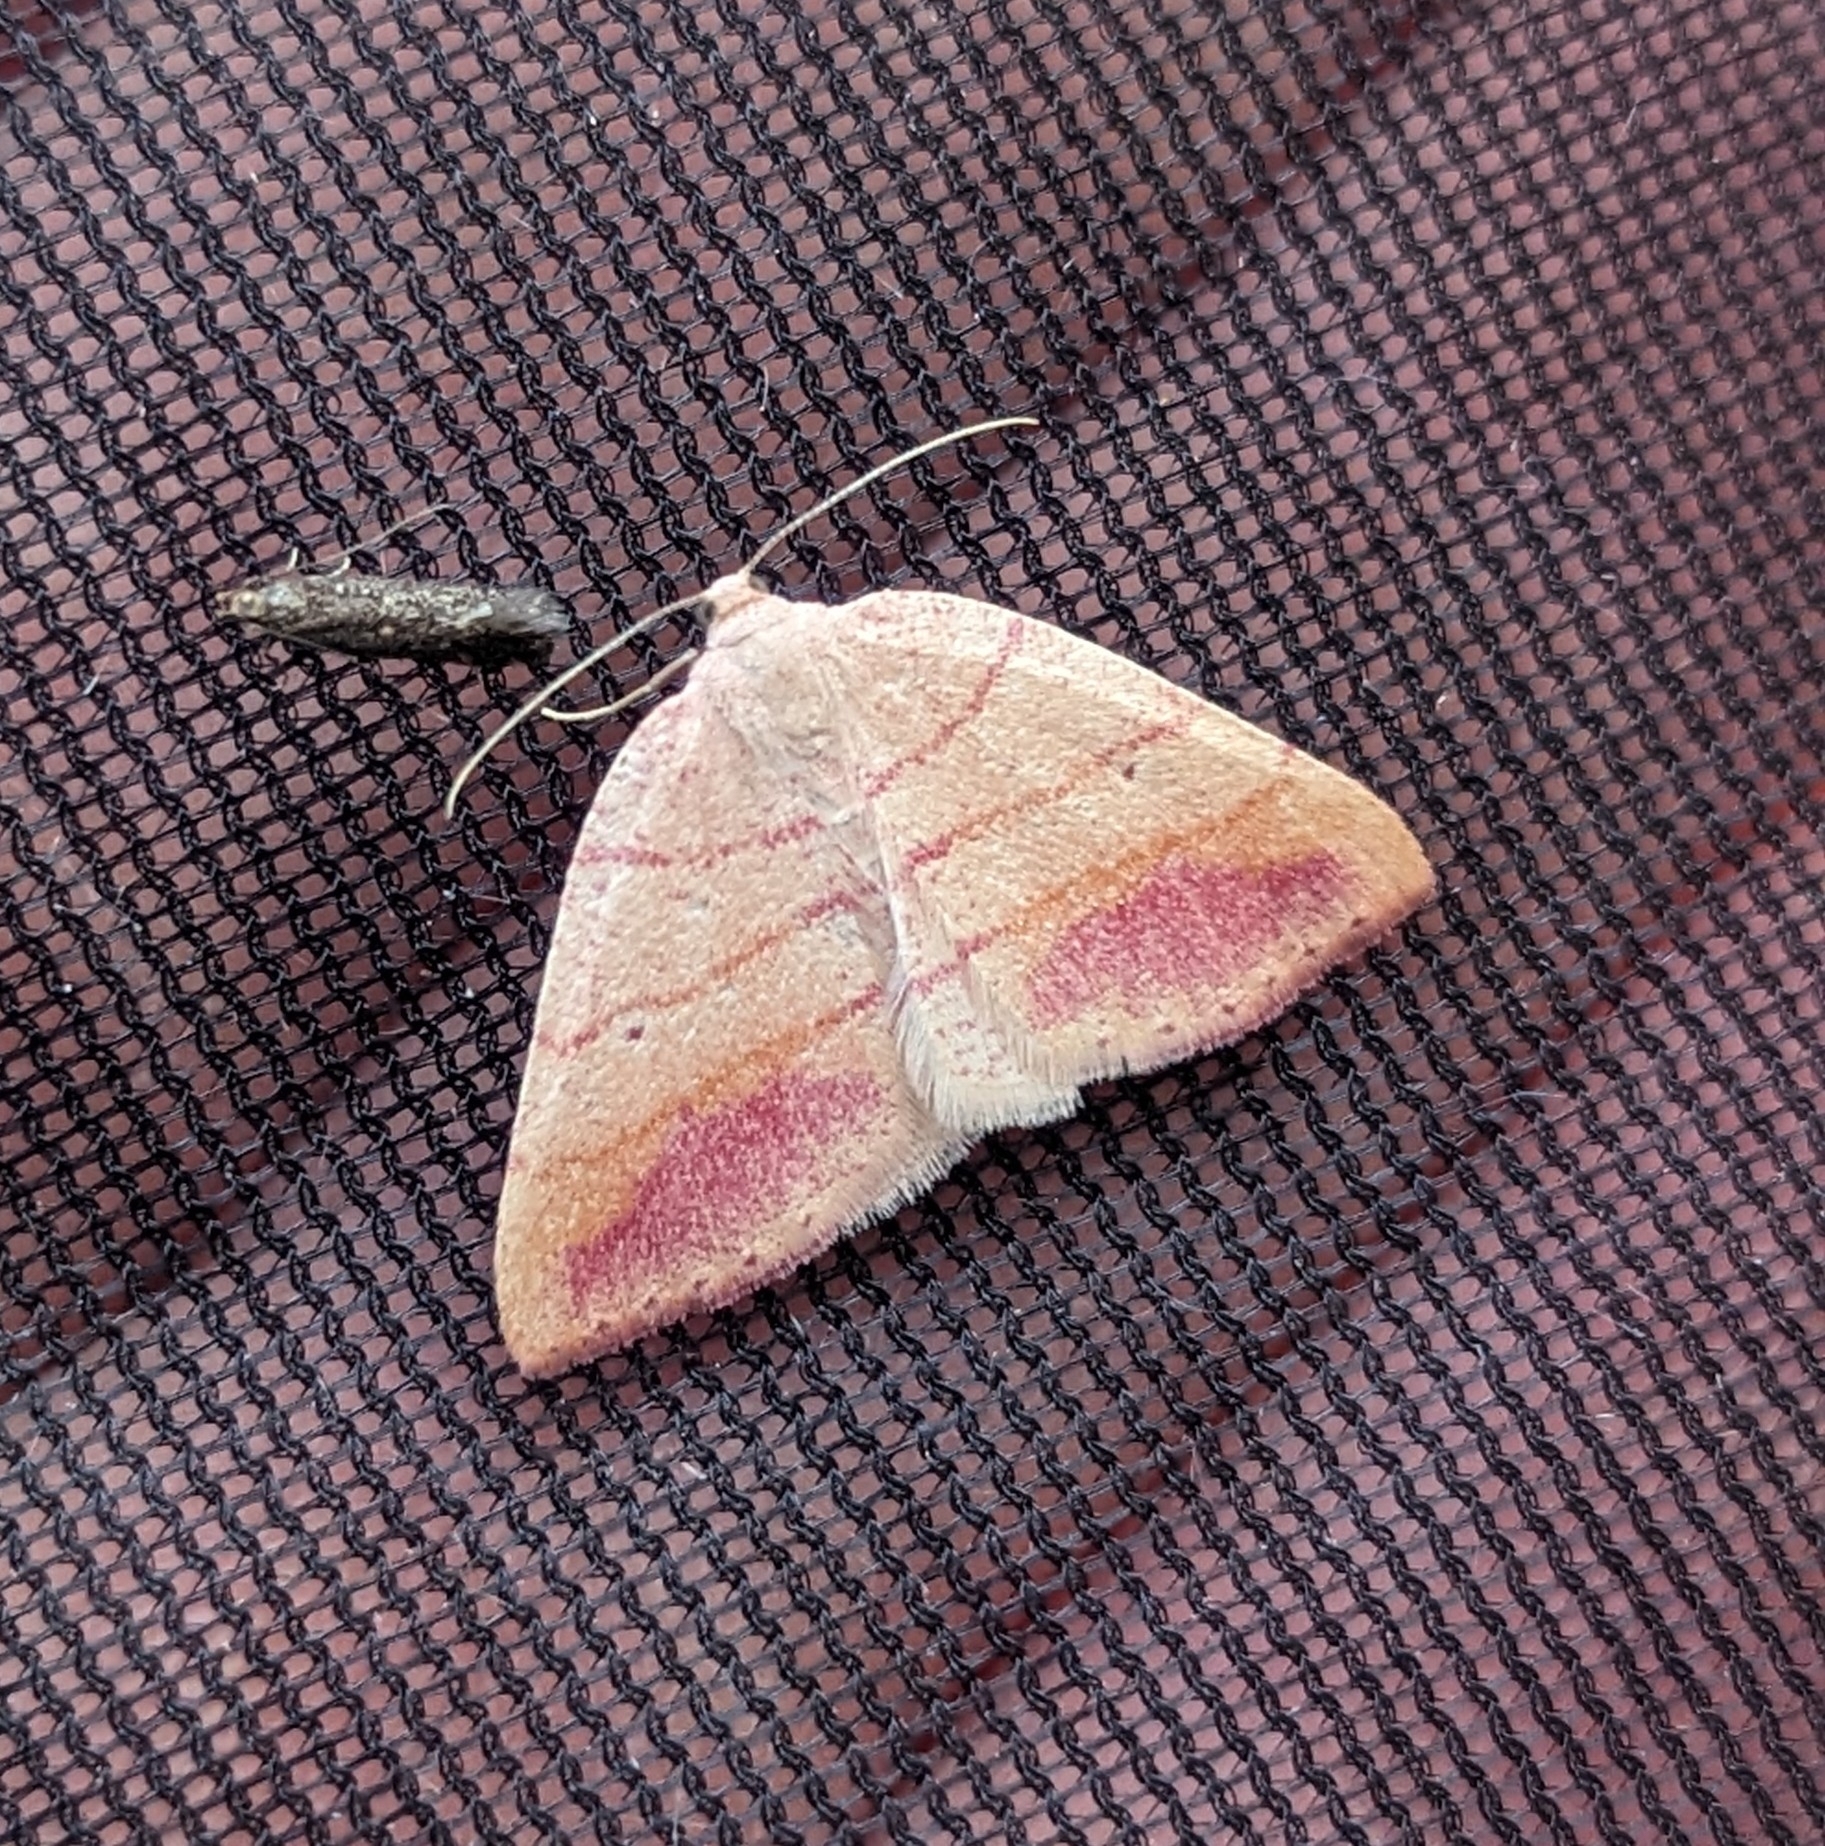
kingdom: Animalia
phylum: Arthropoda
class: Insecta
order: Lepidoptera
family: Geometridae
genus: Drepanulatrix
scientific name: Drepanulatrix carnearia
